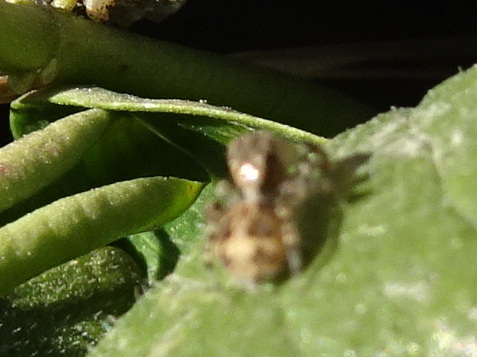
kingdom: Animalia
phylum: Arthropoda
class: Arachnida
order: Araneae
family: Salticidae
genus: Naphrys
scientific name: Naphrys pulex
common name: Flea jumping spider
